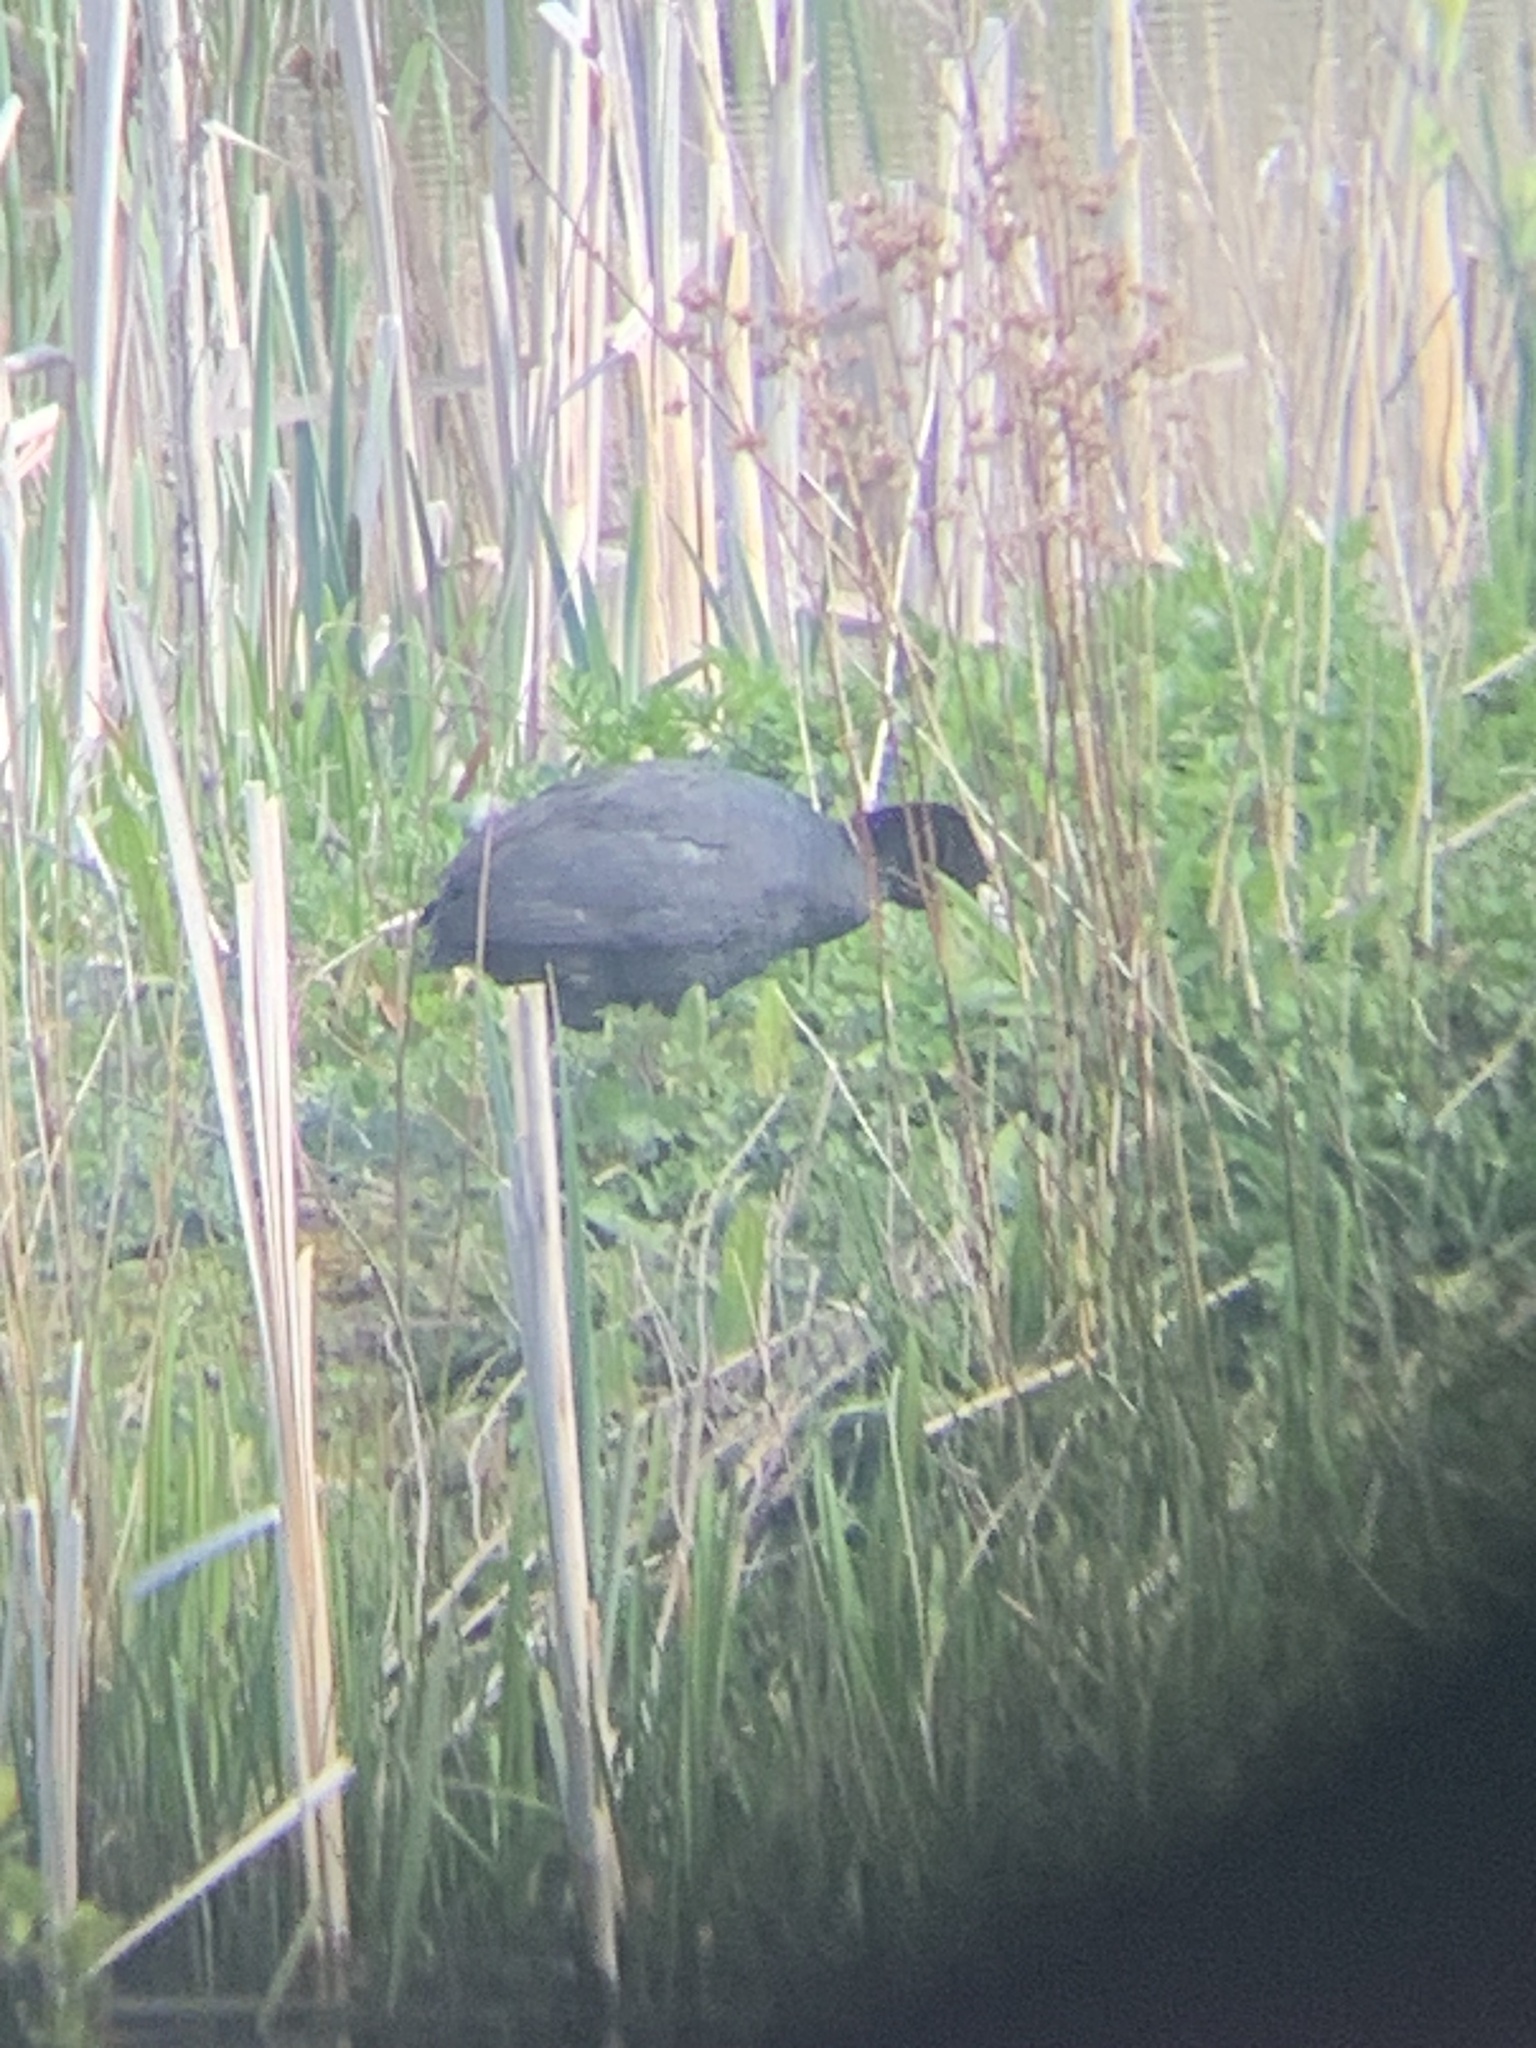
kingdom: Animalia
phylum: Chordata
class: Aves
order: Gruiformes
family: Rallidae
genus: Fulica
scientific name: Fulica atra
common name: Eurasian coot
